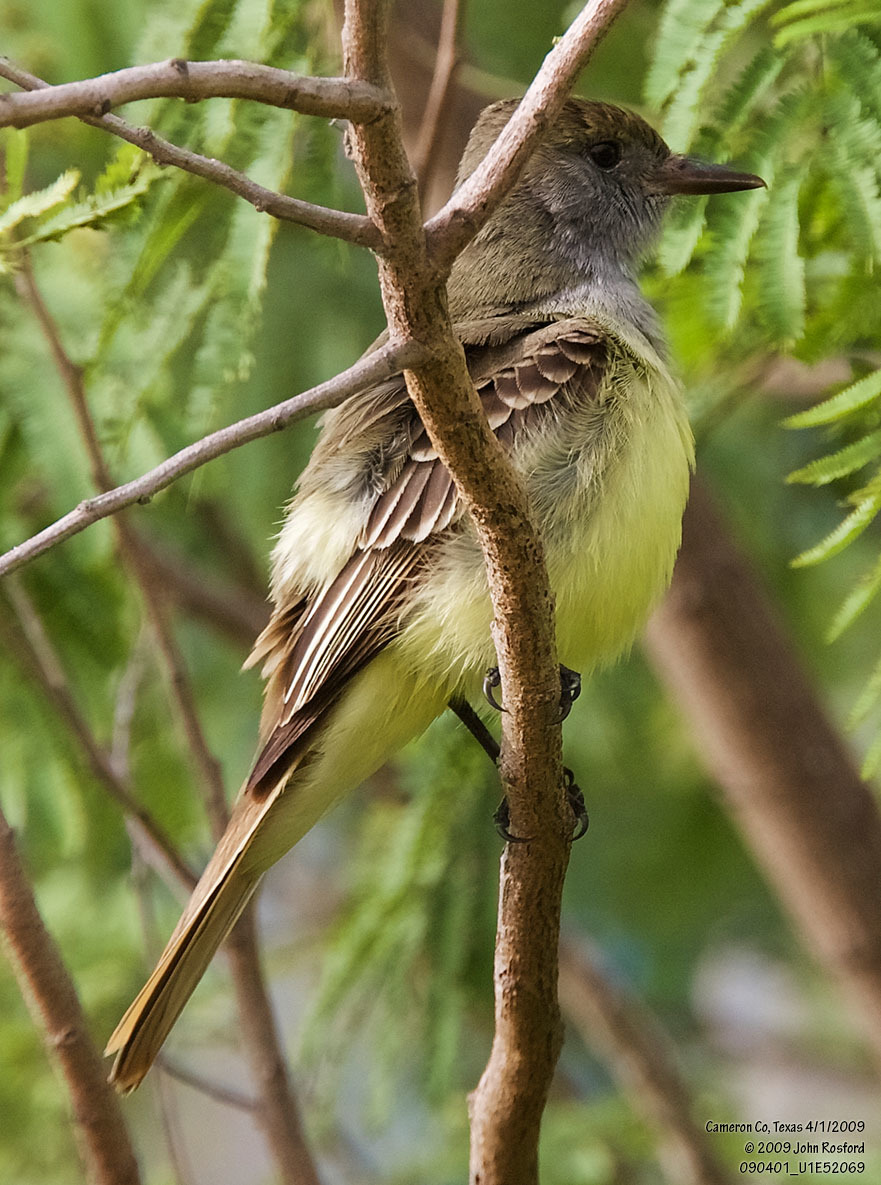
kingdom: Animalia
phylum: Chordata
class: Aves
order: Passeriformes
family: Tyrannidae
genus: Myiarchus
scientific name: Myiarchus crinitus
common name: Great crested flycatcher
